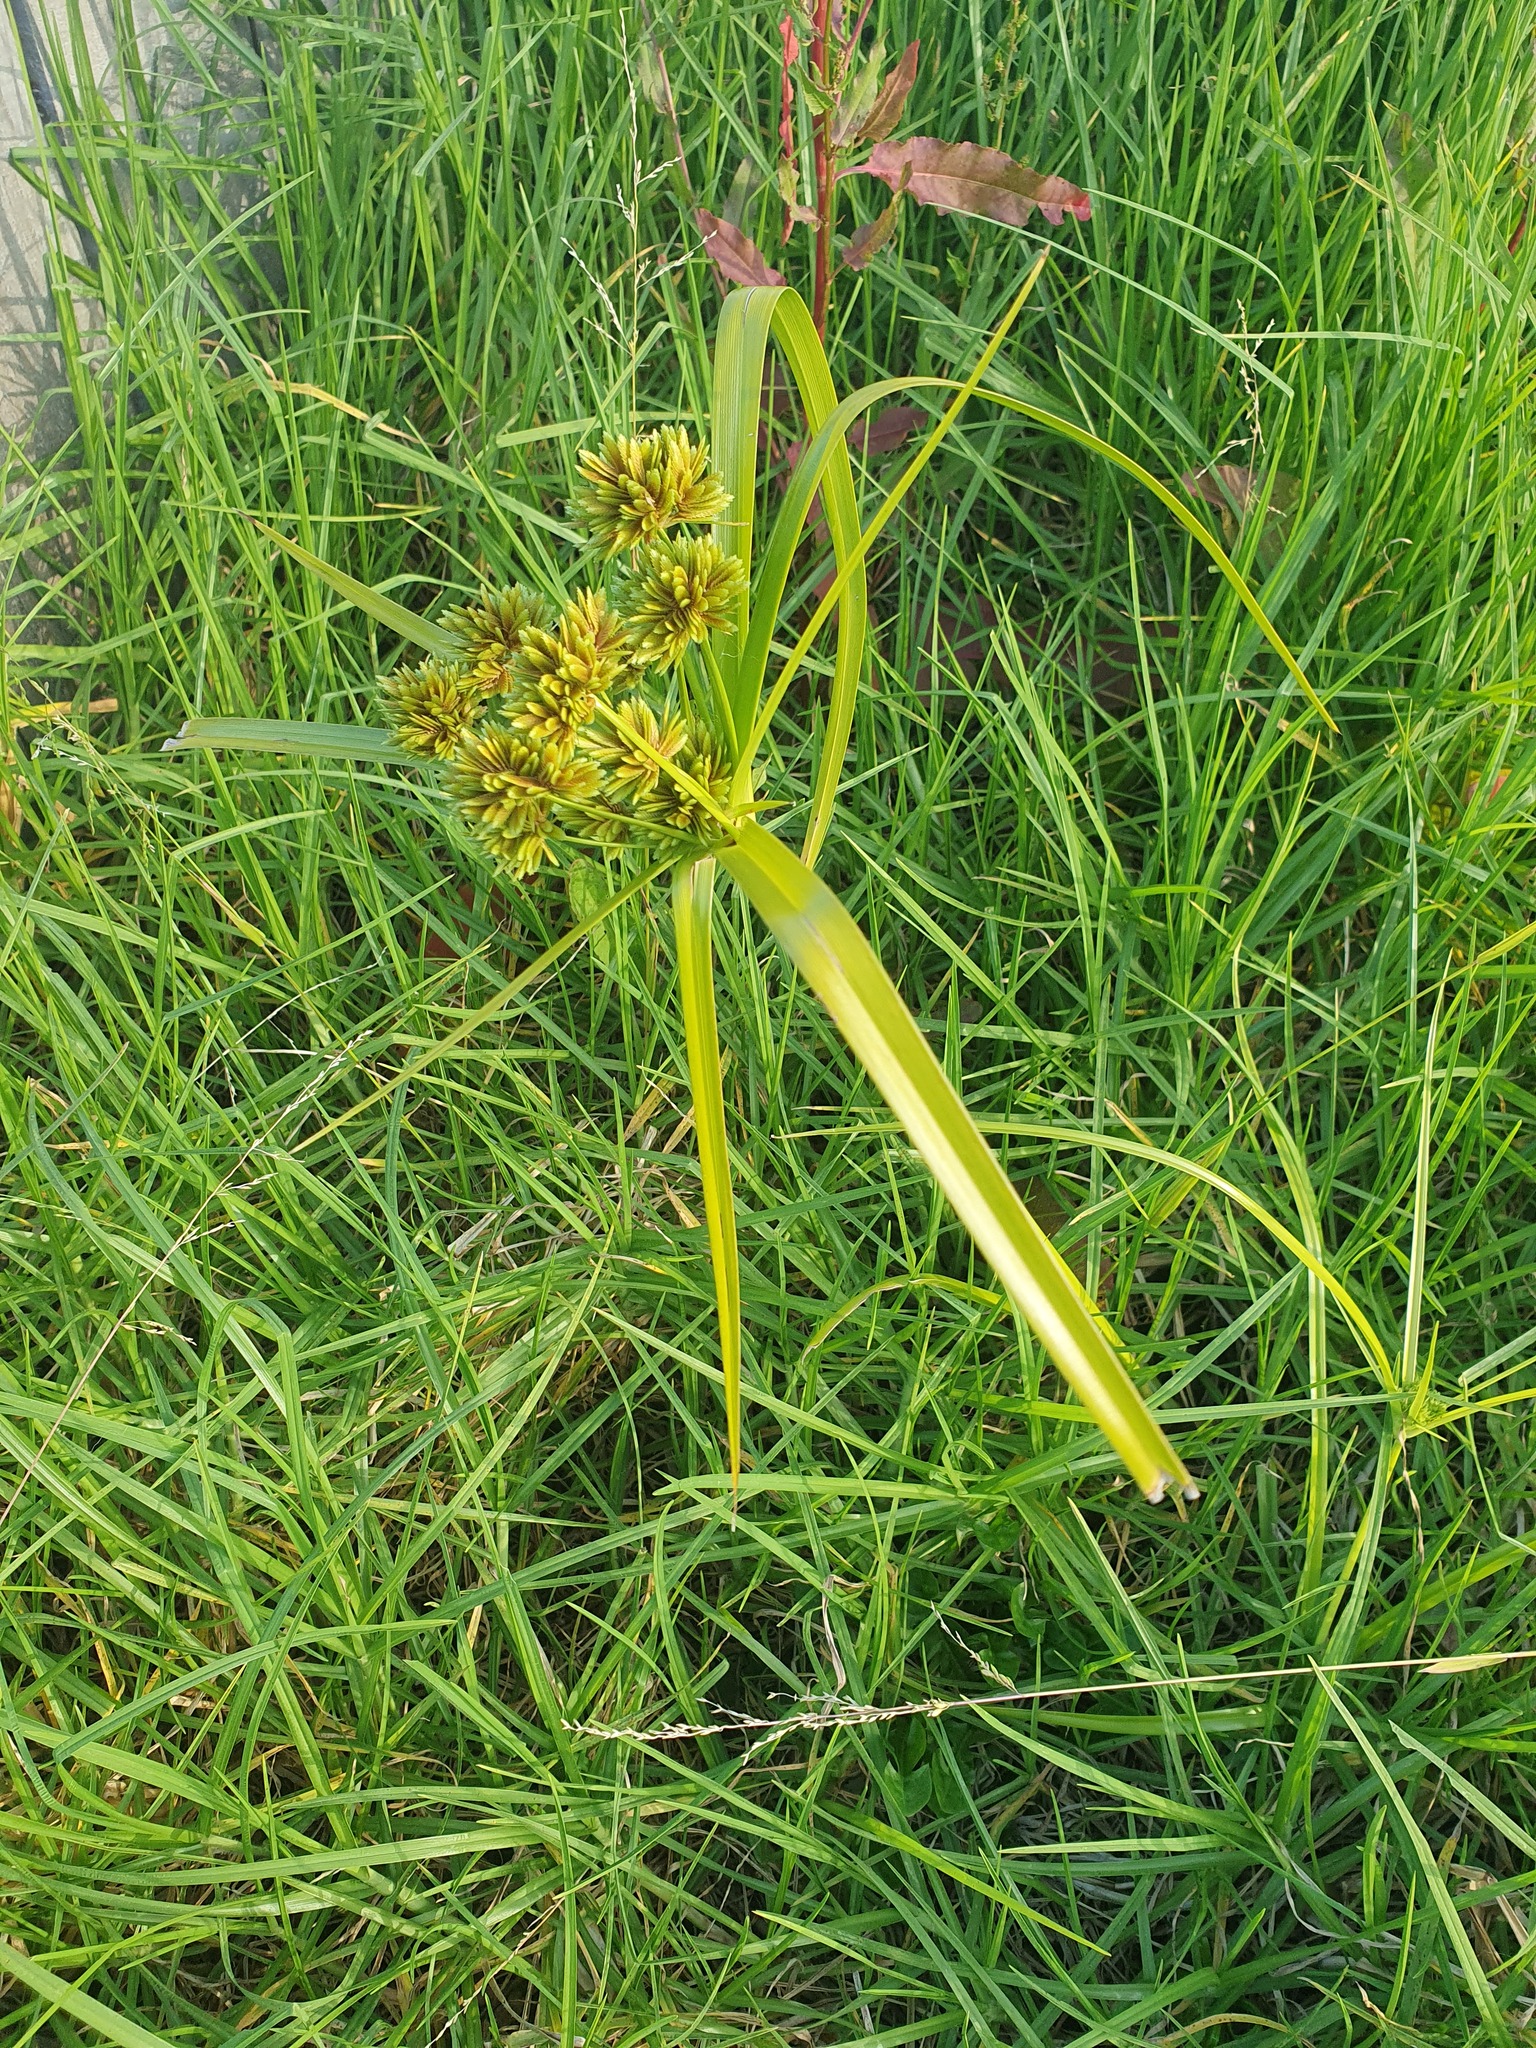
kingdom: Plantae
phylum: Tracheophyta
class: Liliopsida
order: Poales
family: Cyperaceae
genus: Cyperus
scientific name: Cyperus eragrostis
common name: Tall flatsedge
